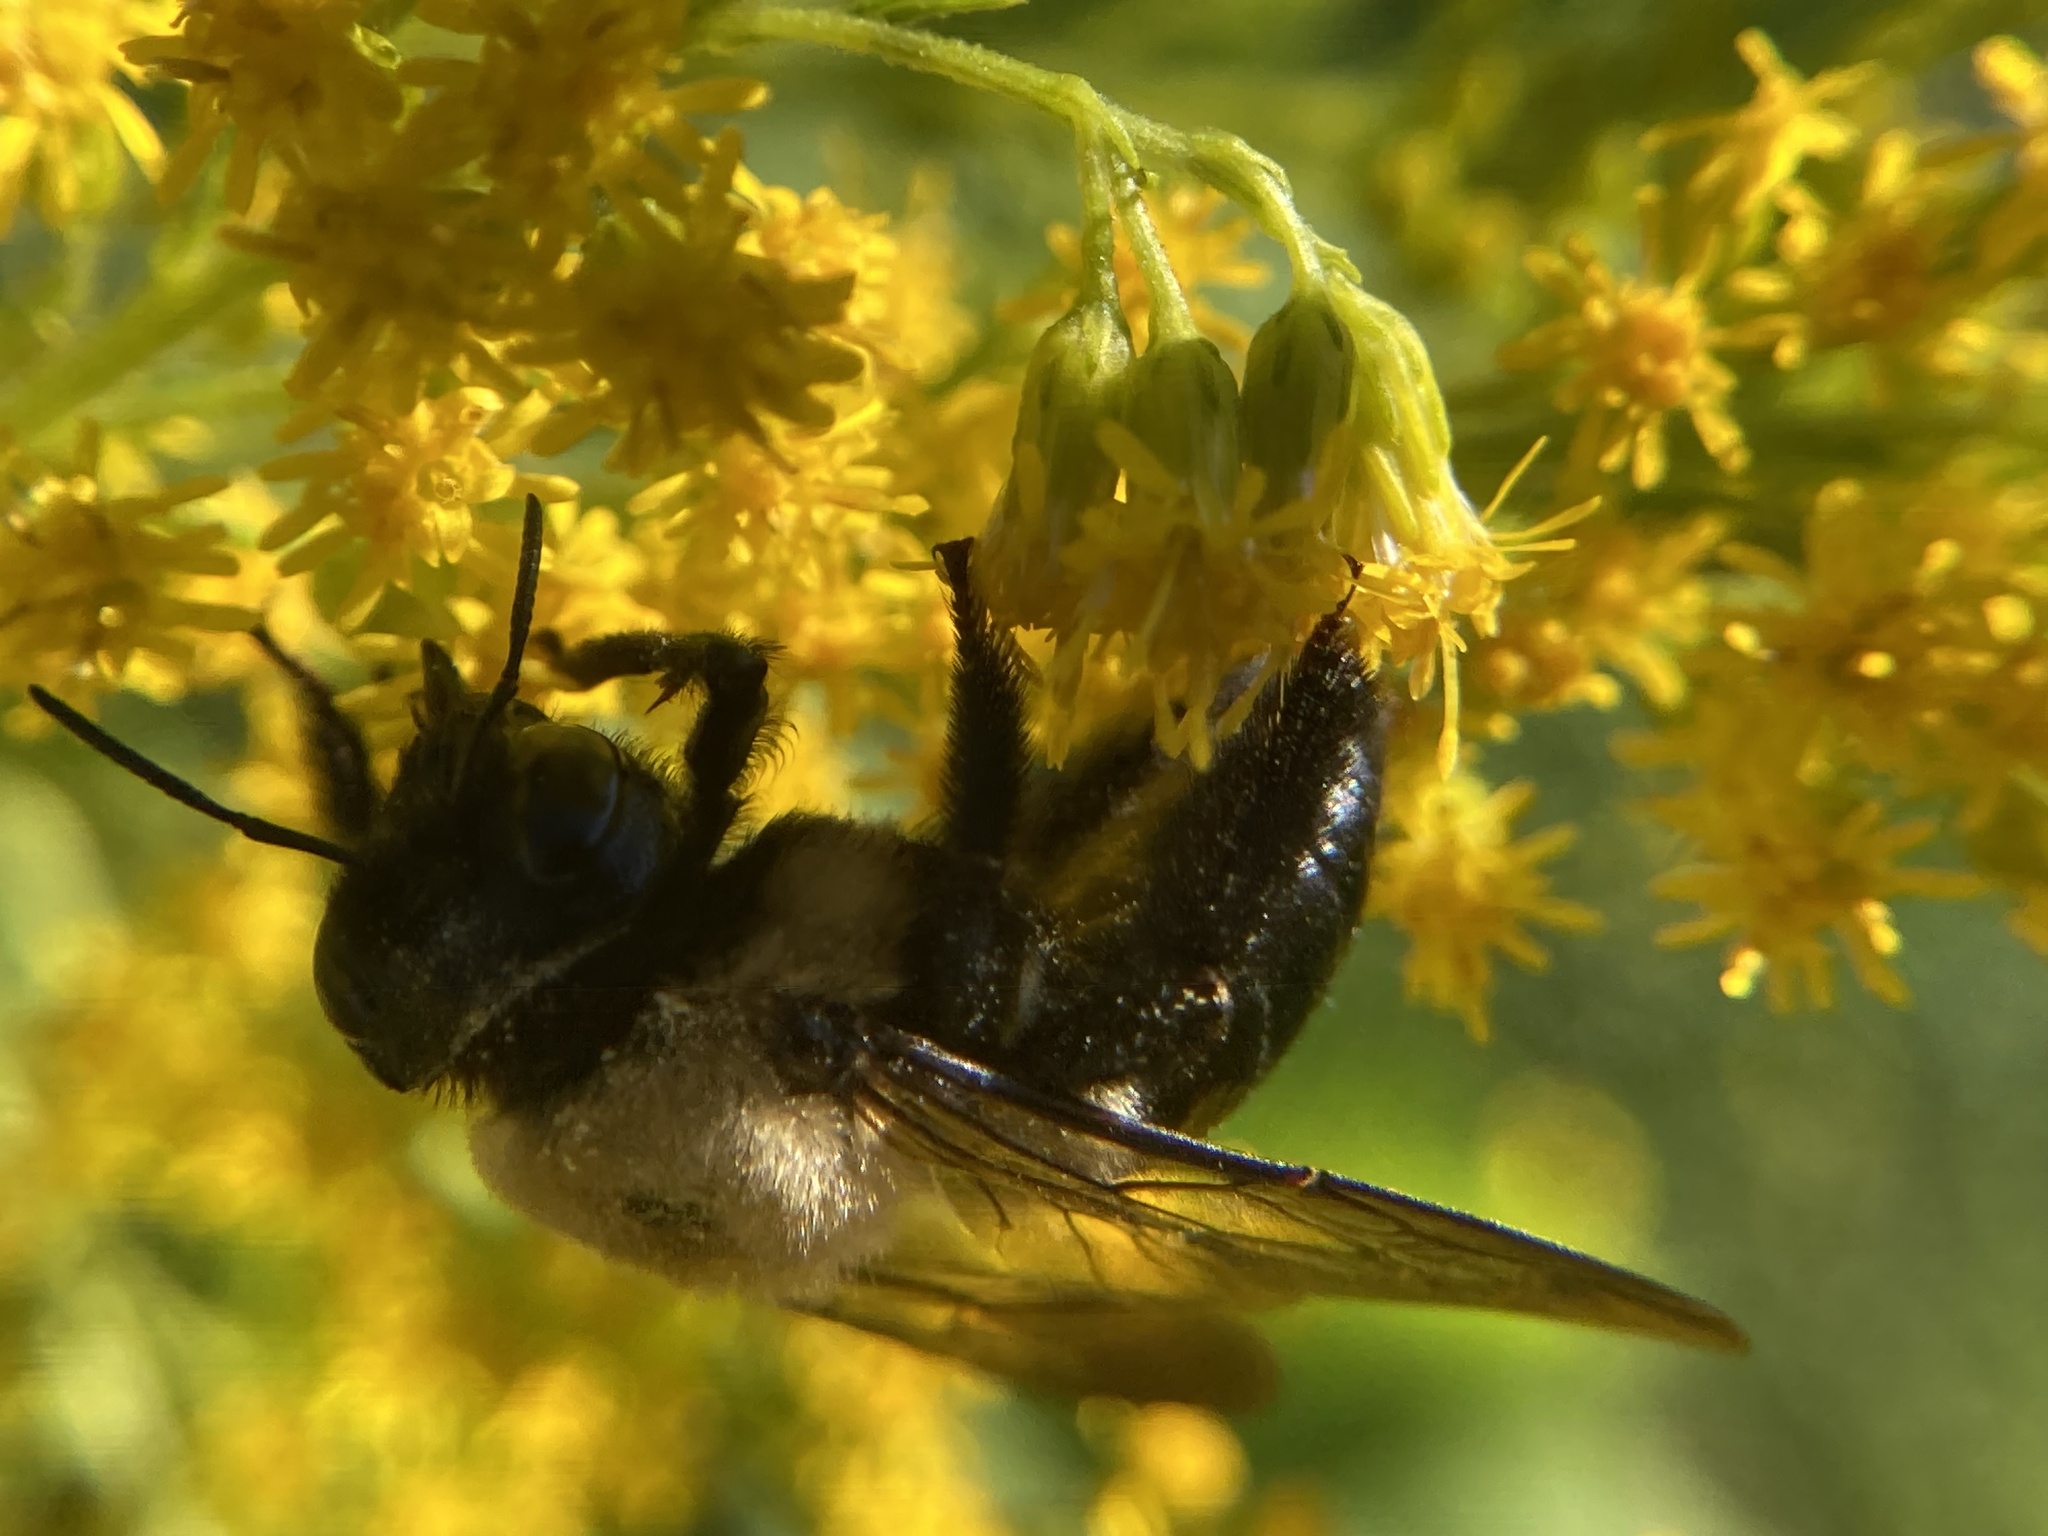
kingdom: Animalia
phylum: Arthropoda
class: Insecta
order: Hymenoptera
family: Apidae
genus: Xylocopa
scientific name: Xylocopa virginica
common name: Carpenter bee
